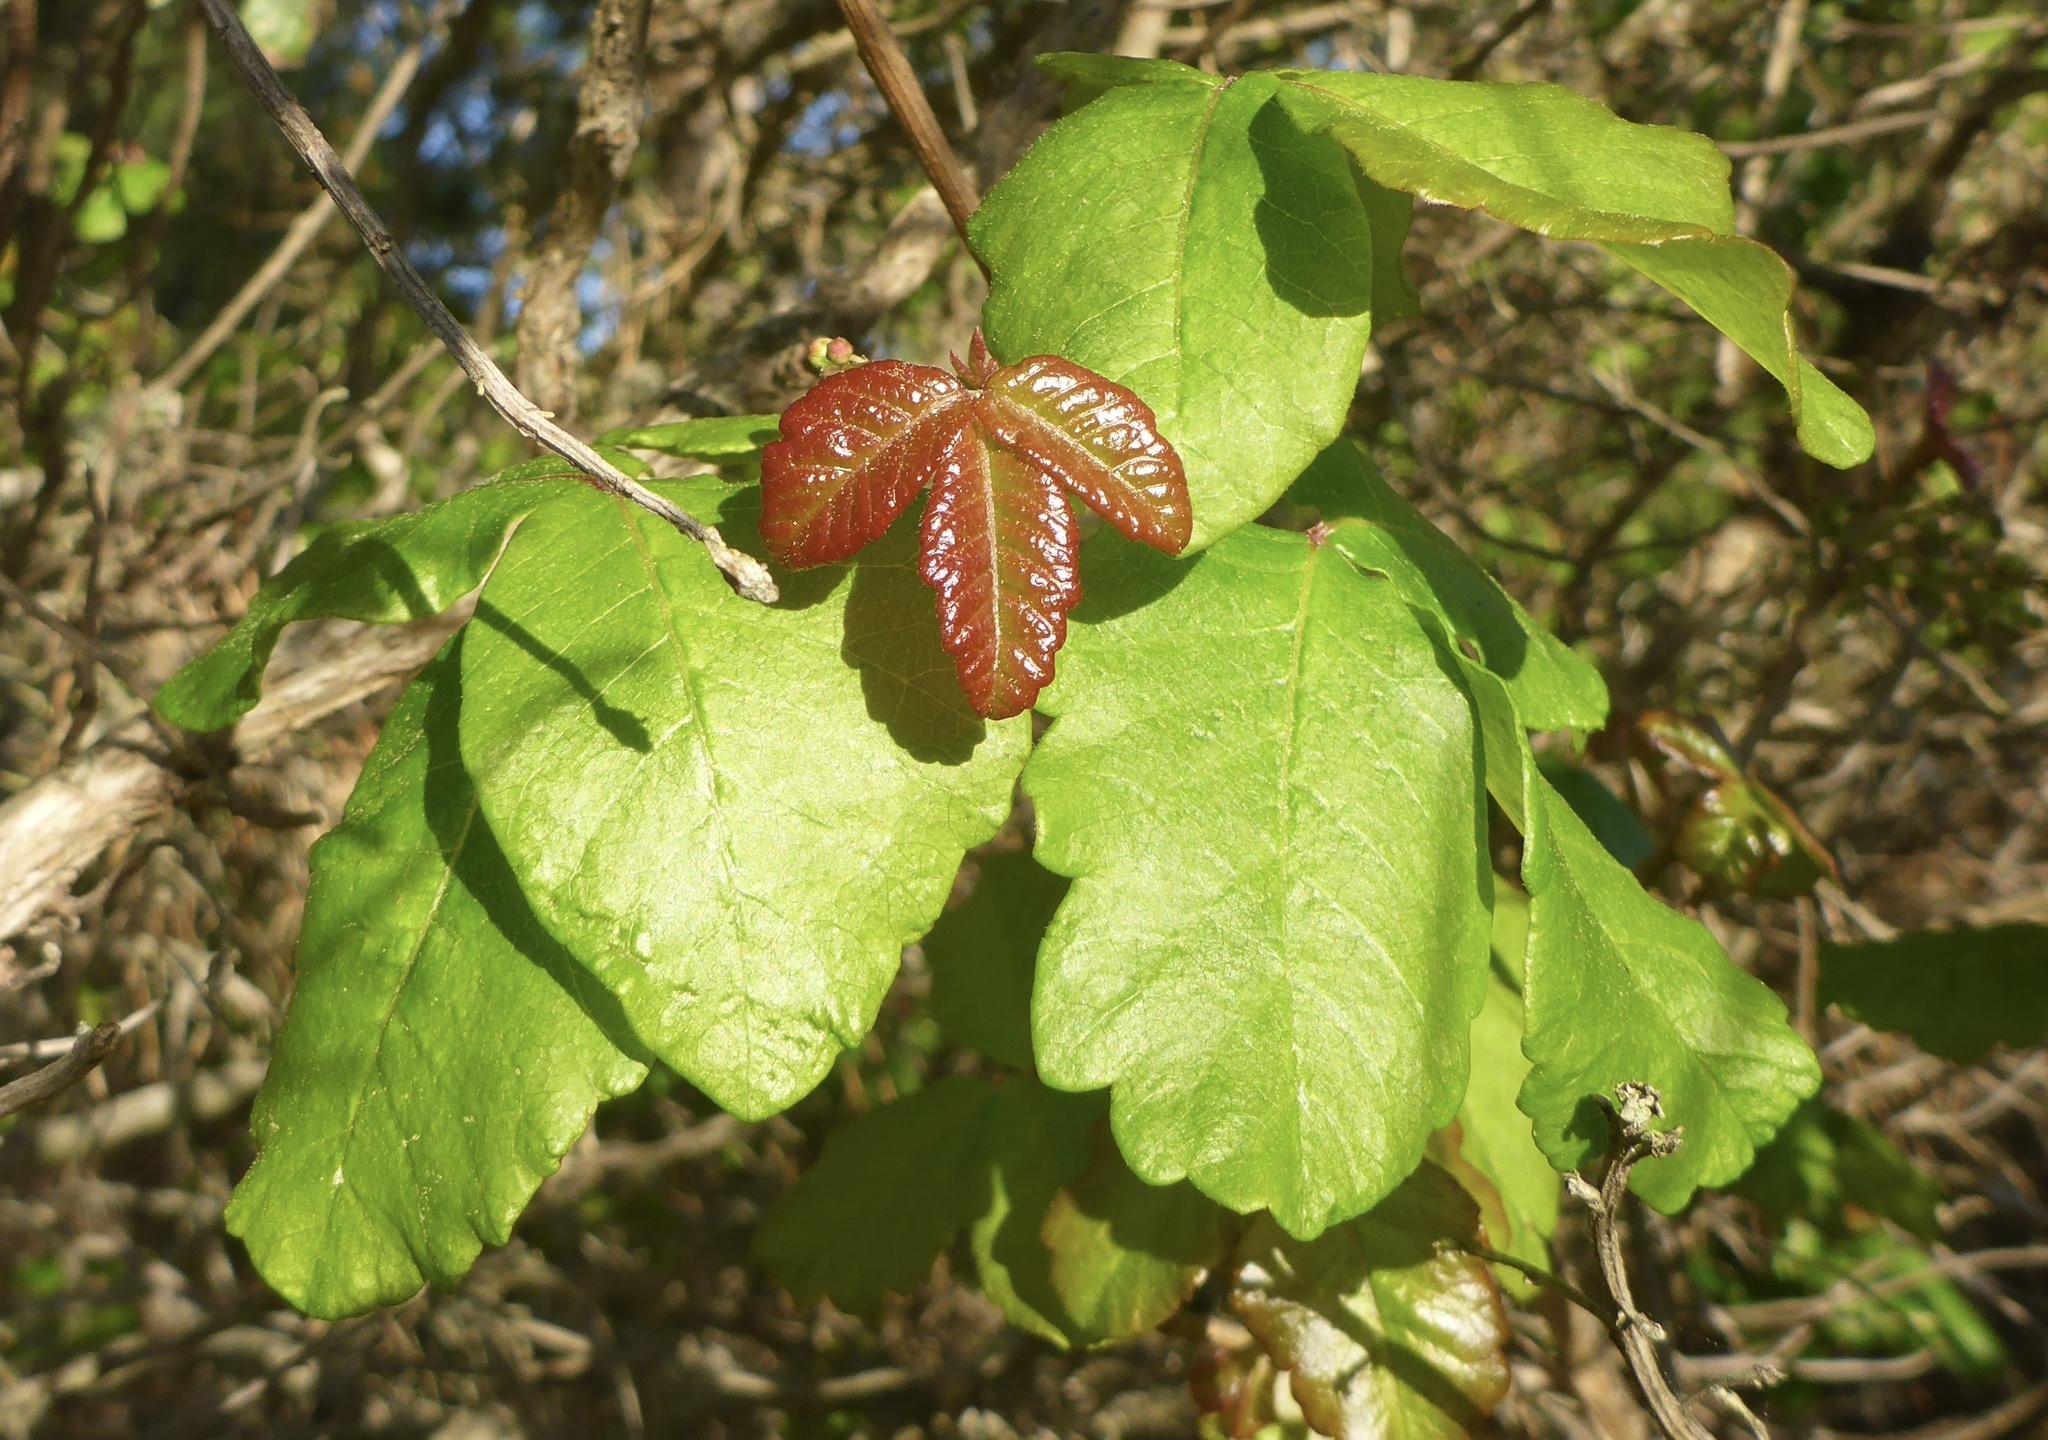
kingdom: Plantae
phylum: Tracheophyta
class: Magnoliopsida
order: Sapindales
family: Anacardiaceae
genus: Toxicodendron
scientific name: Toxicodendron diversilobum
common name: Pacific poison-oak
